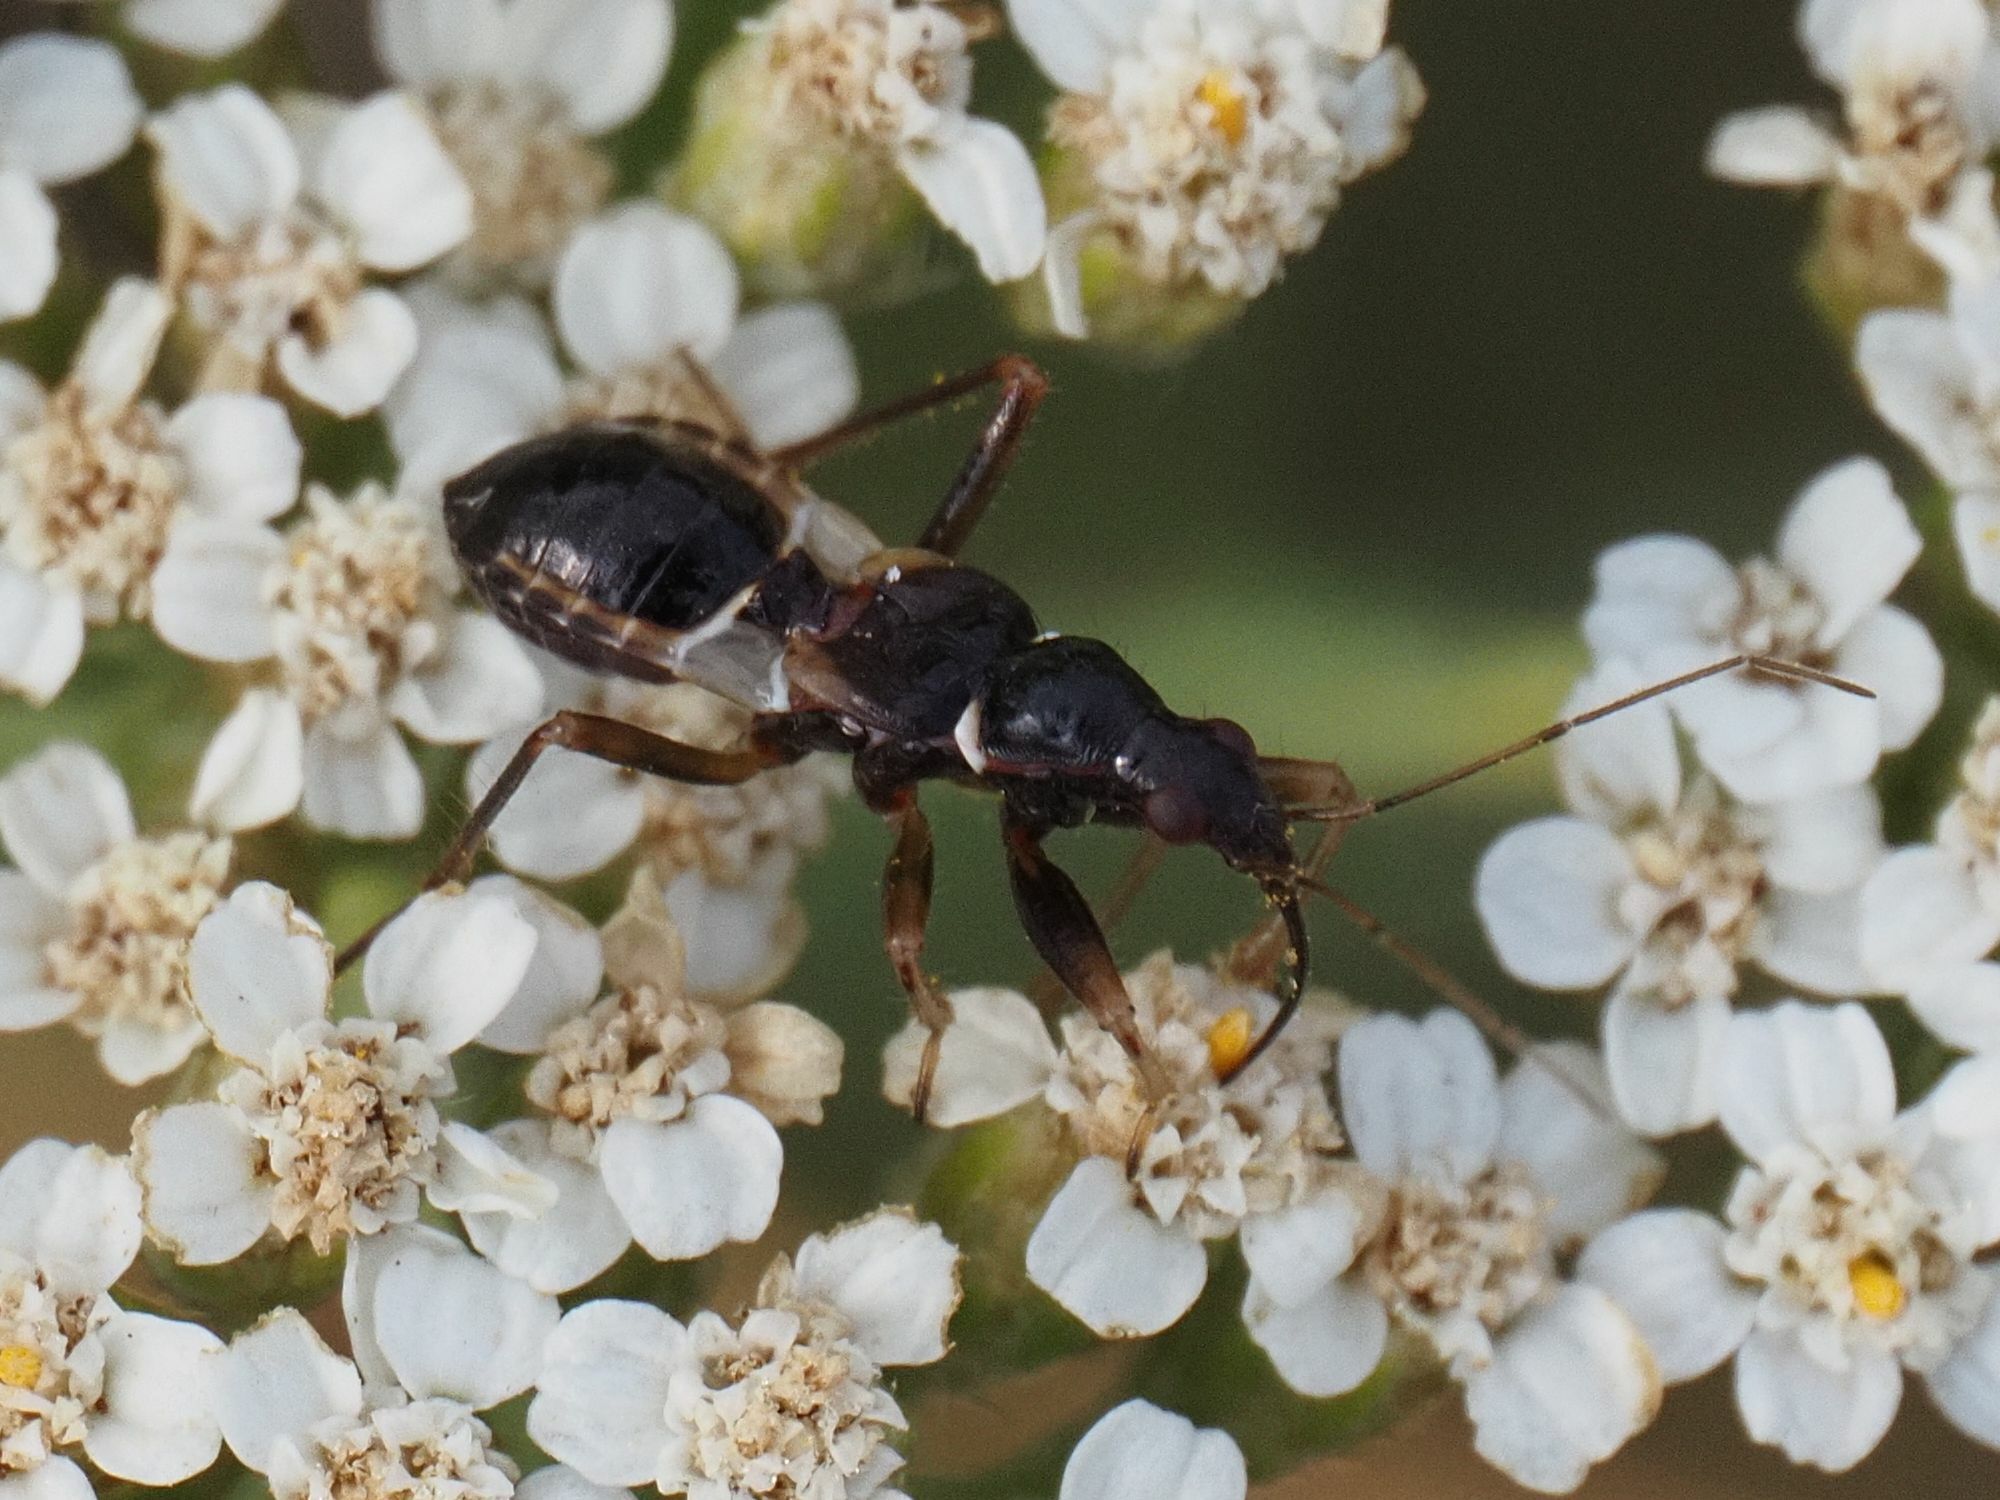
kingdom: Animalia
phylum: Arthropoda
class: Insecta
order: Hemiptera
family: Nabidae
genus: Himacerus
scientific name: Himacerus mirmicoides
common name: Ant damsel bug
